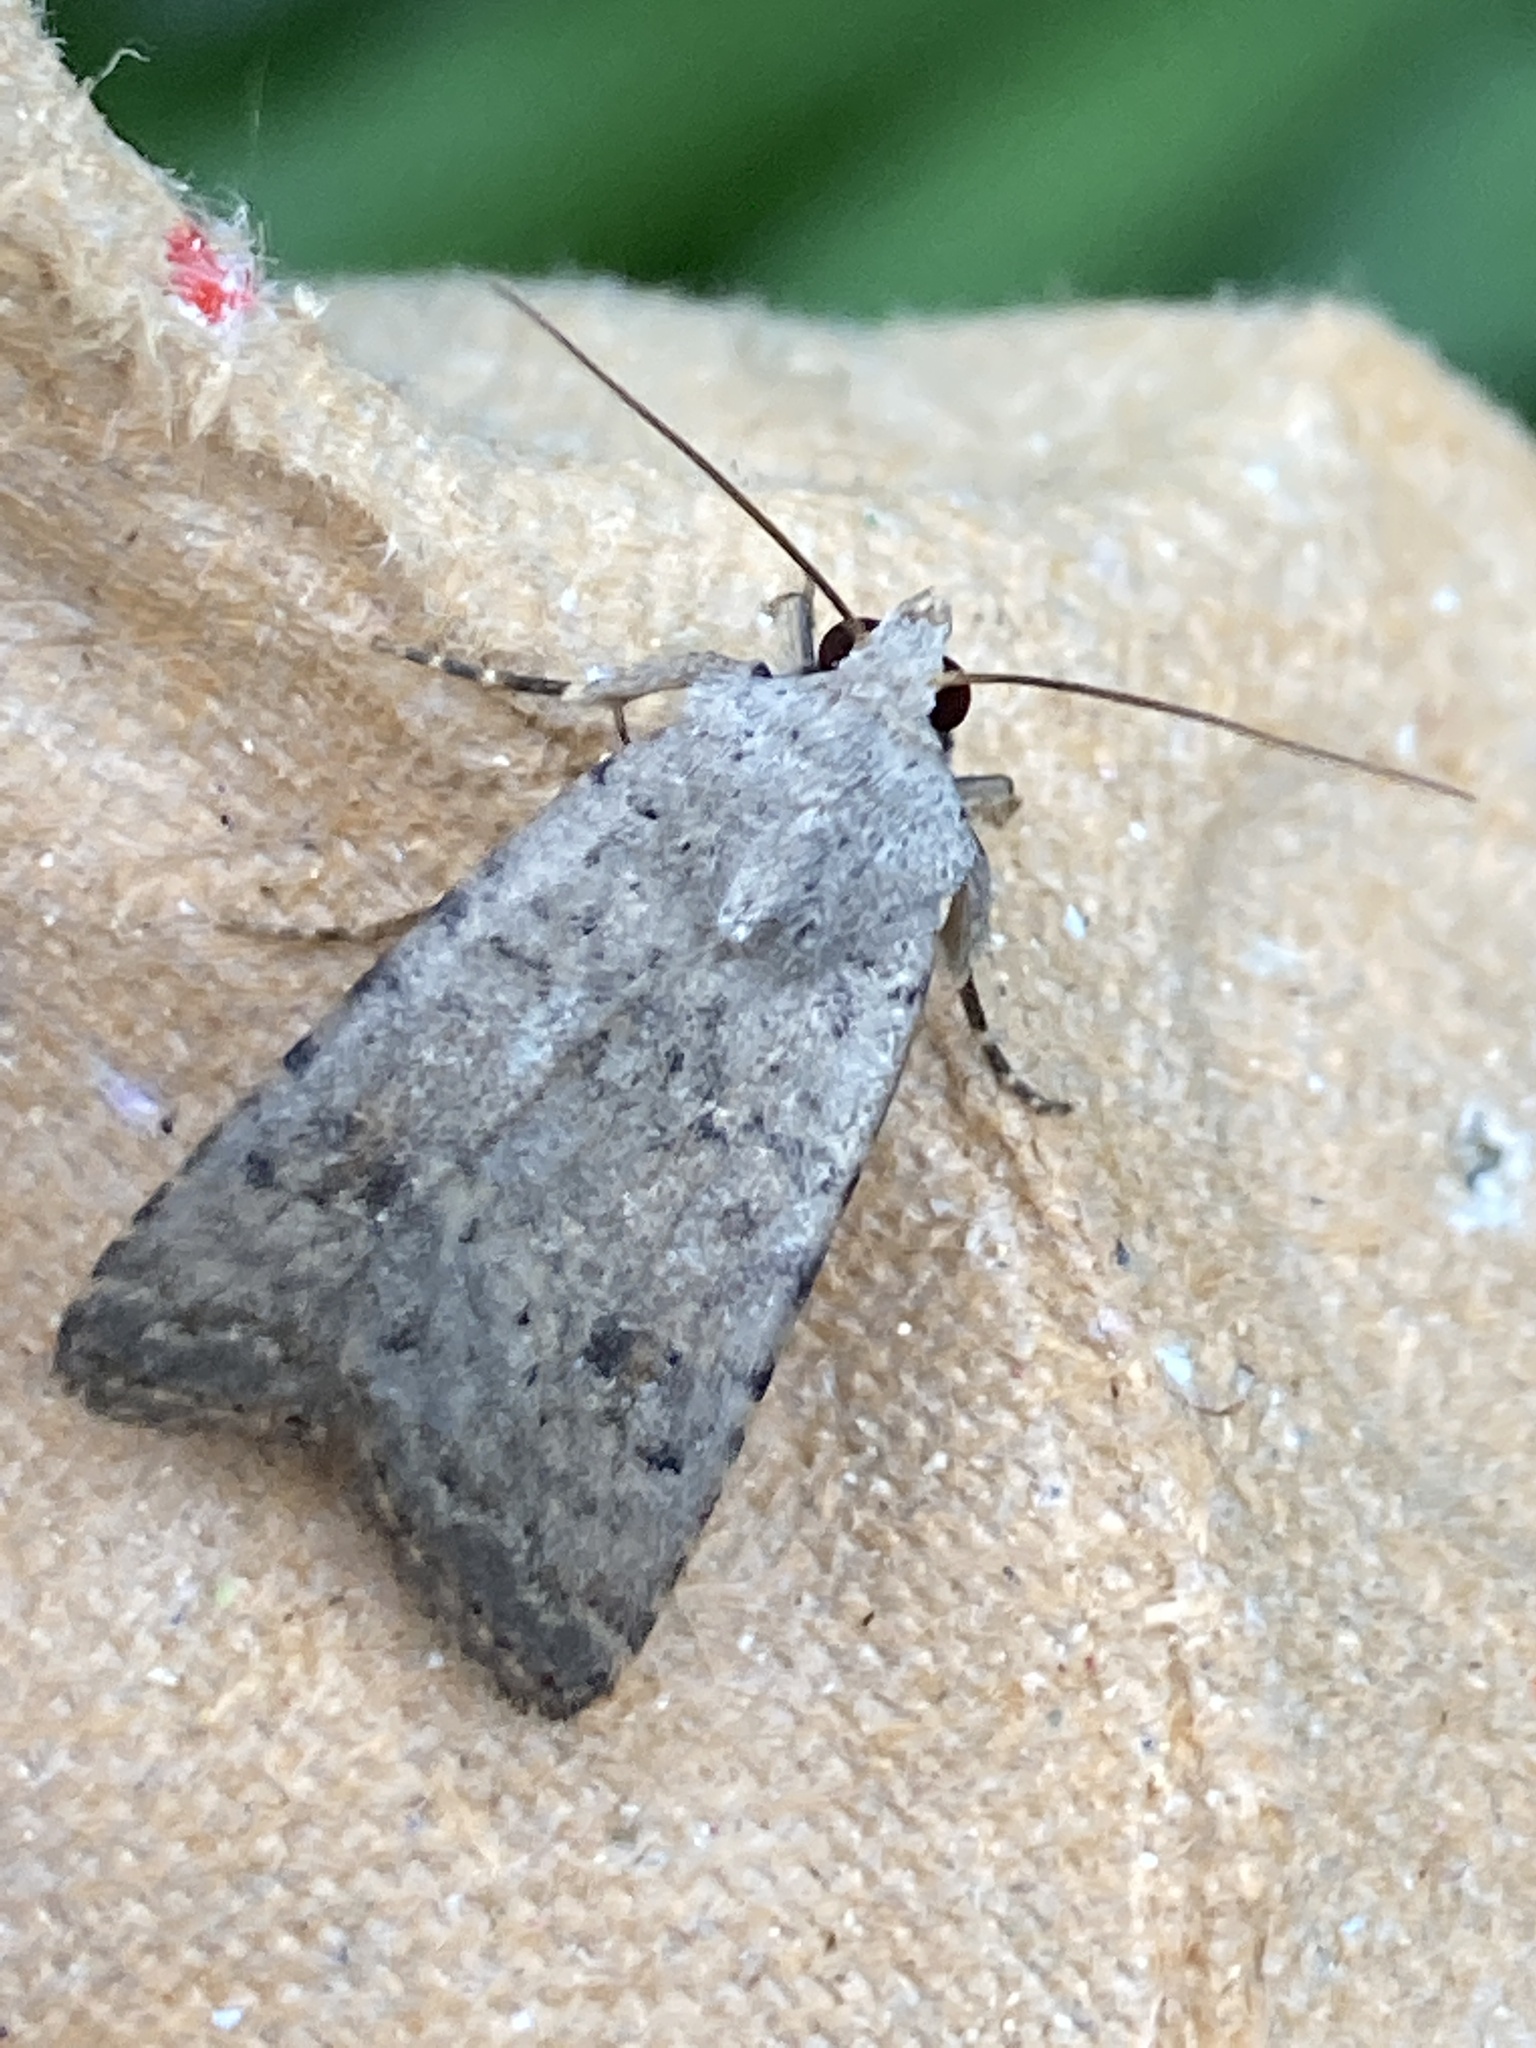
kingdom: Animalia
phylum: Arthropoda
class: Insecta
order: Lepidoptera
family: Noctuidae
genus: Caradrina
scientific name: Caradrina clavipalpis
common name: Pale mottled willow
